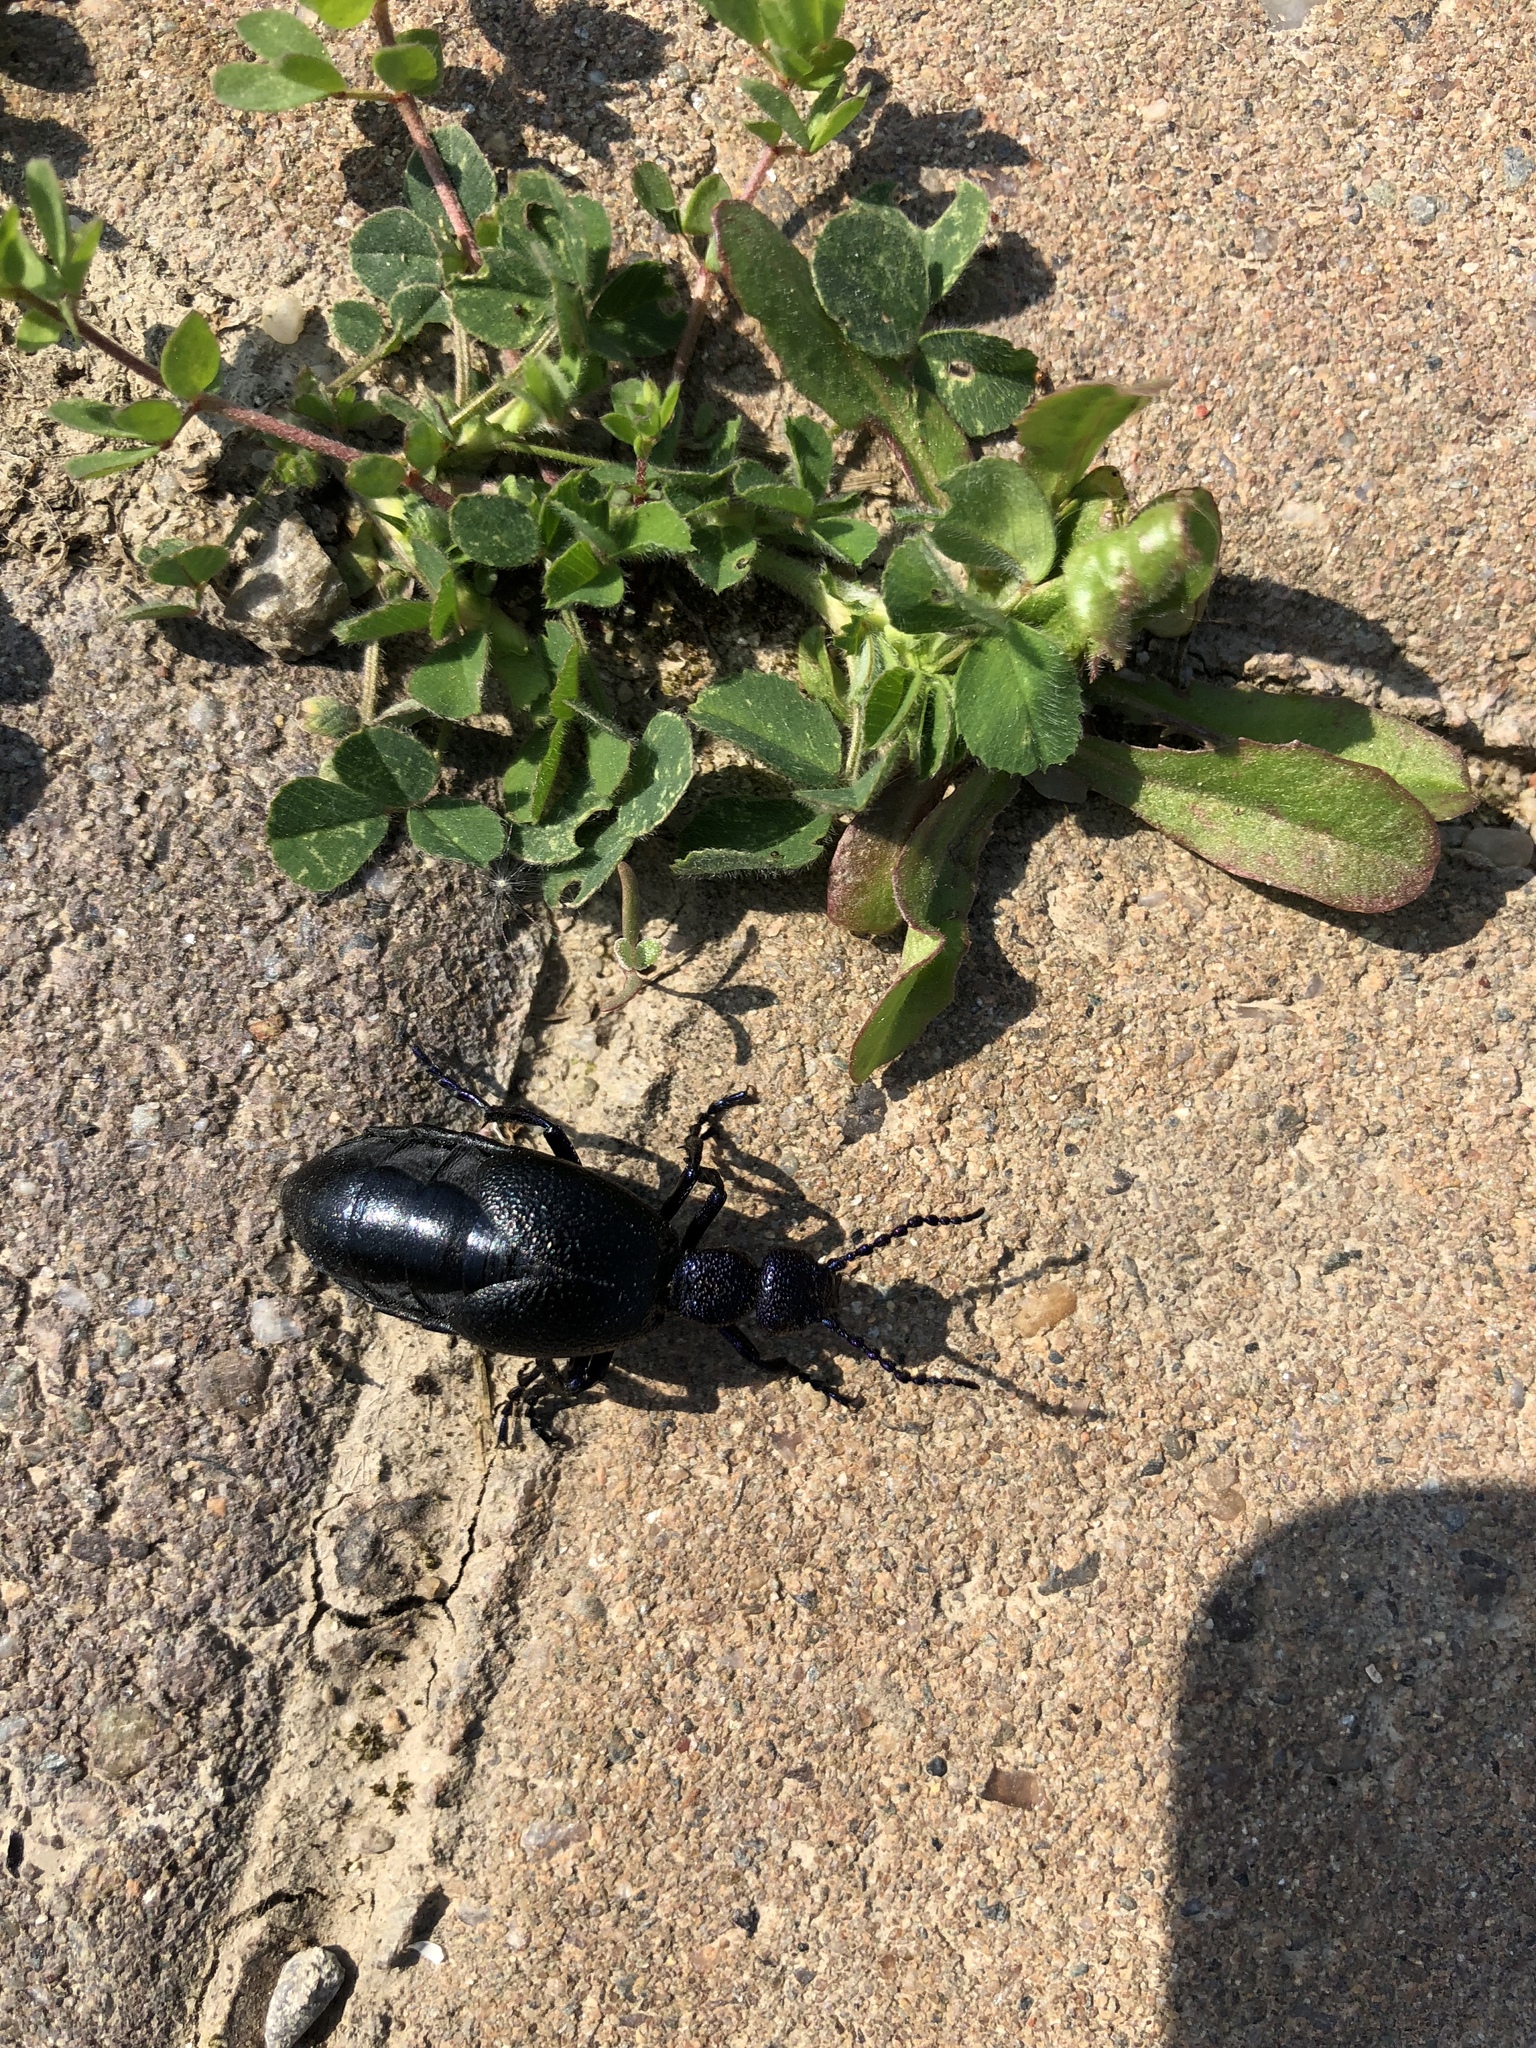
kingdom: Animalia
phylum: Arthropoda
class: Insecta
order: Coleoptera
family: Meloidae
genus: Meloe
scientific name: Meloe proscarabaeus
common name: Black oil-beetle
